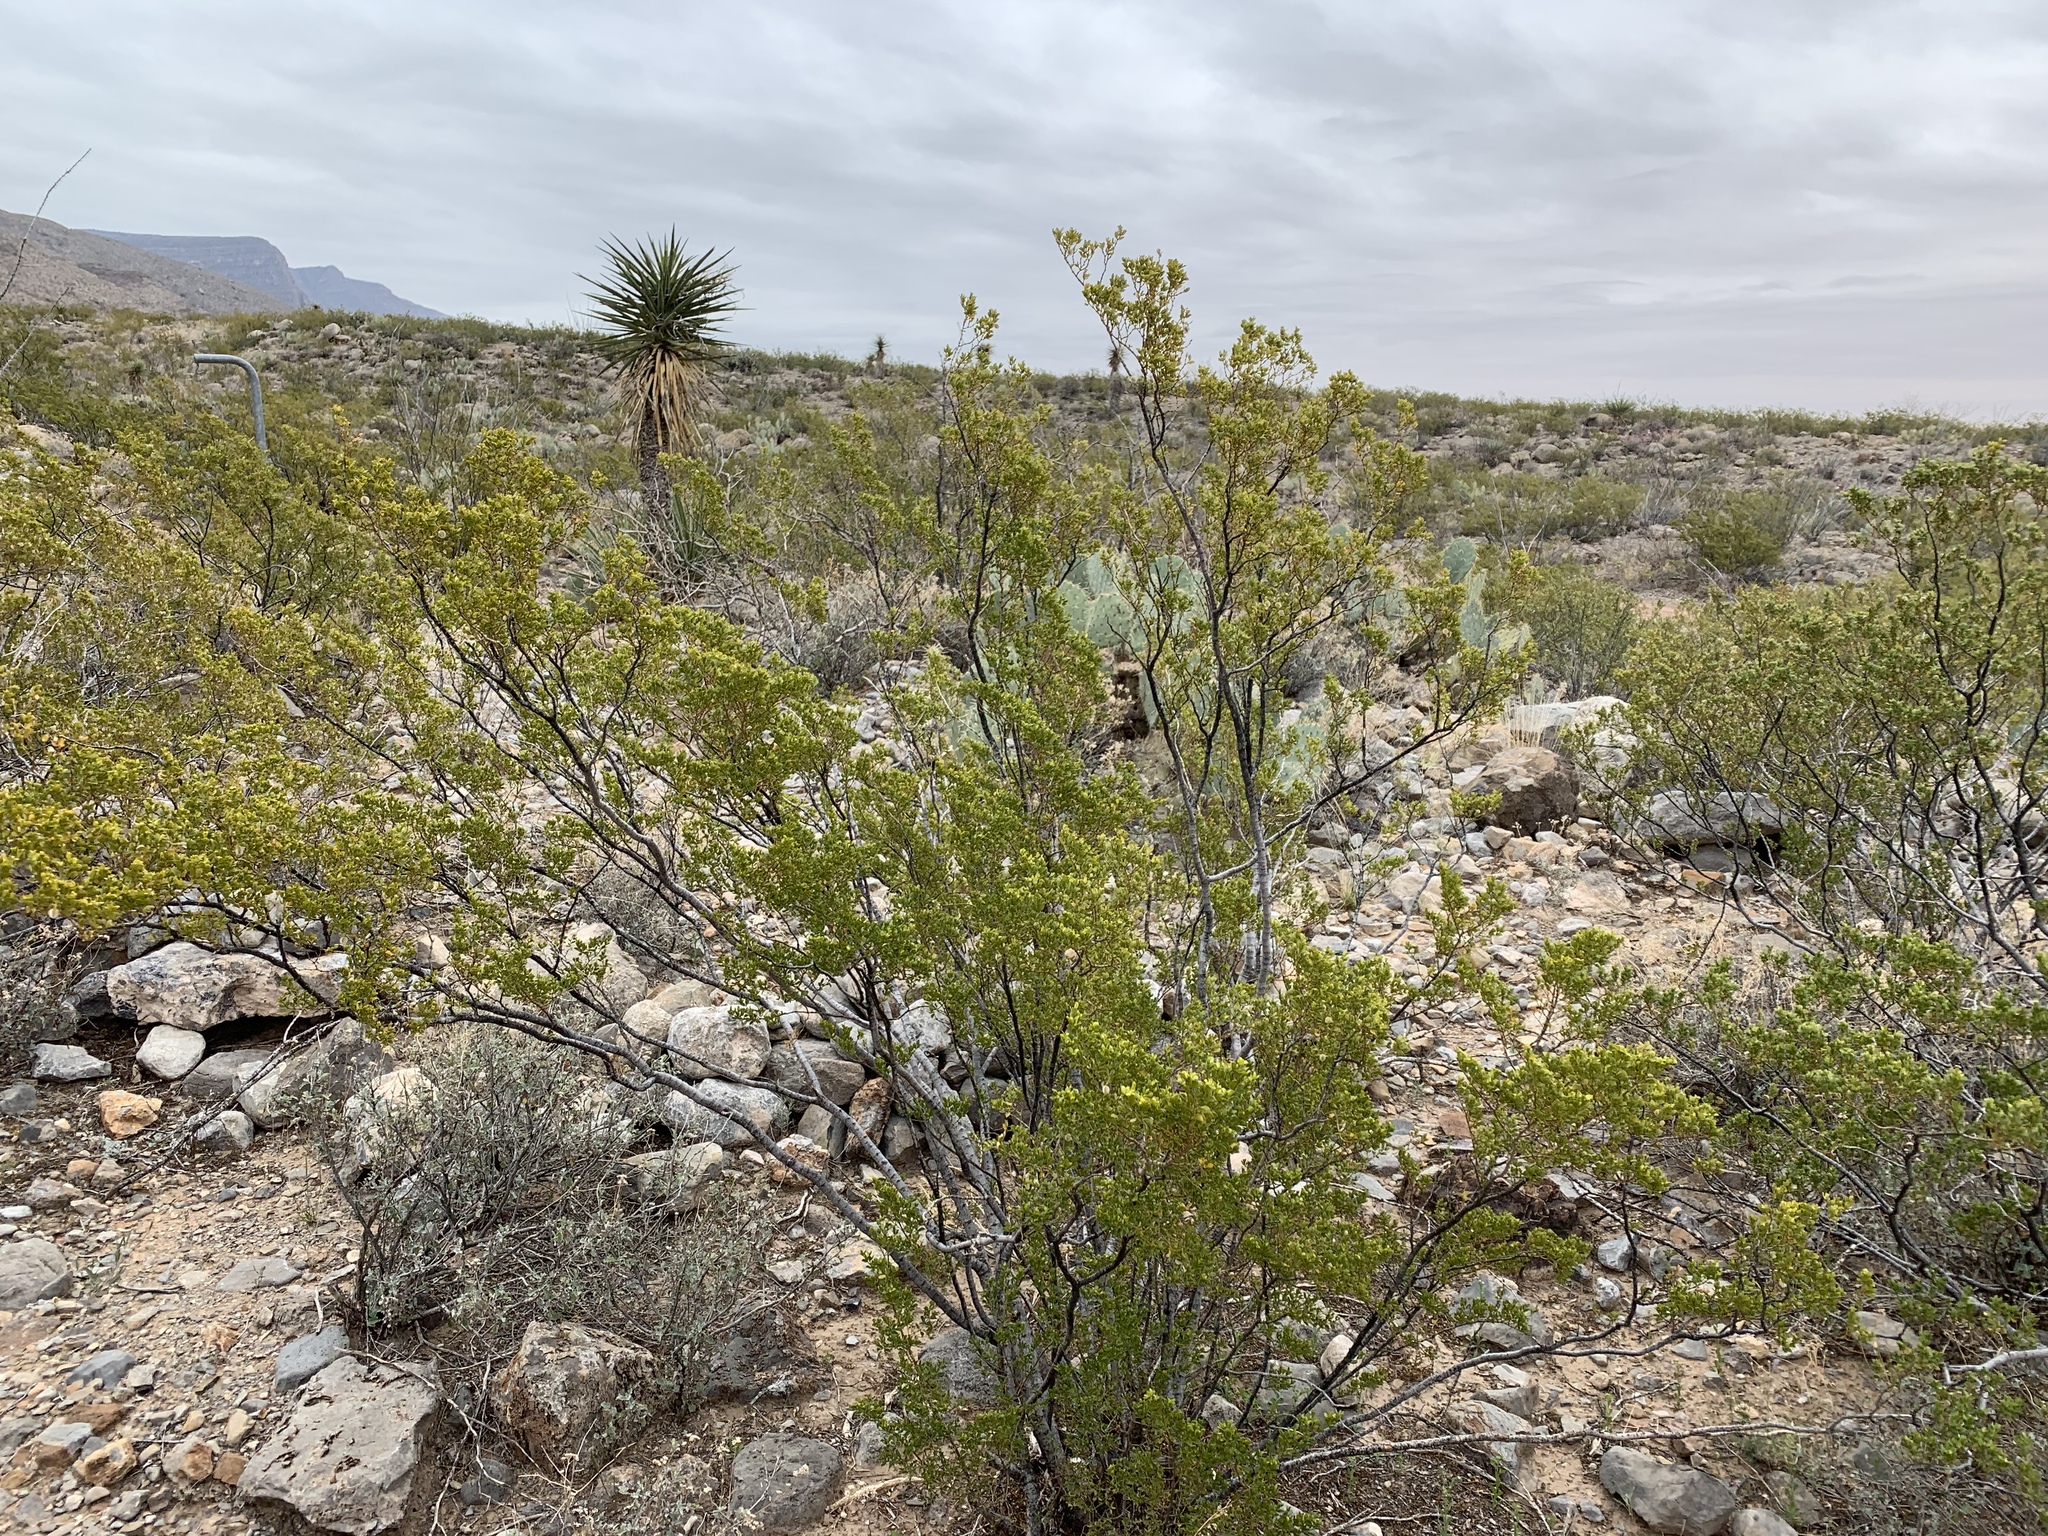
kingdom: Plantae
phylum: Tracheophyta
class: Magnoliopsida
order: Zygophyllales
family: Zygophyllaceae
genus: Larrea
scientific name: Larrea tridentata
